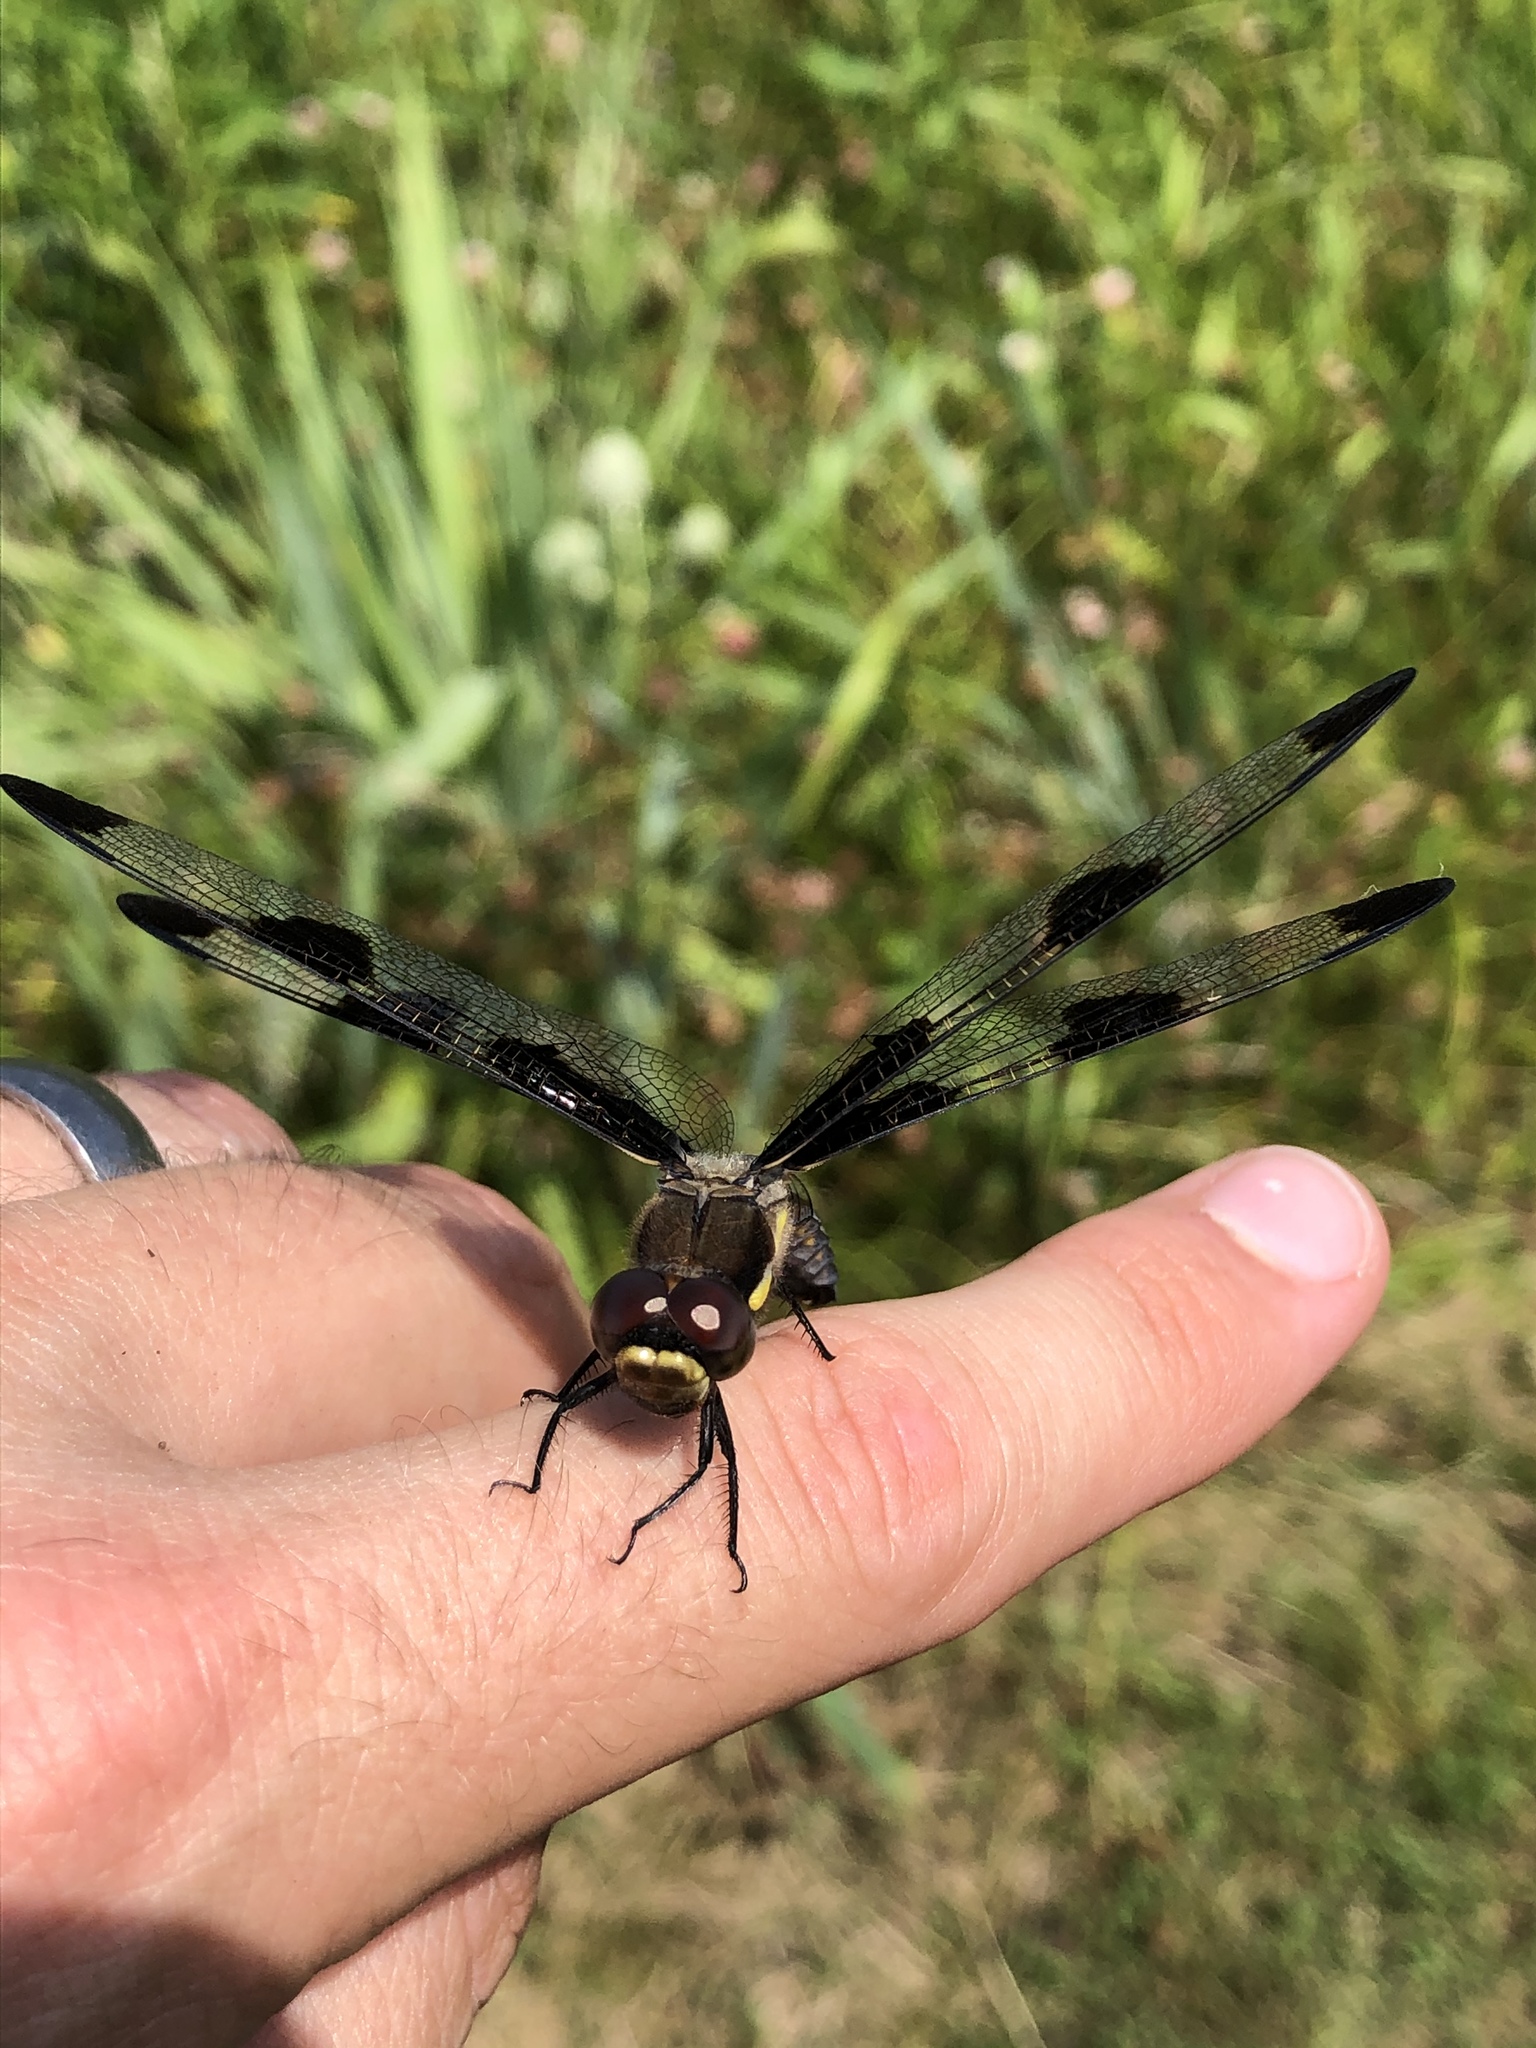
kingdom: Animalia
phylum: Arthropoda
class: Insecta
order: Odonata
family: Libellulidae
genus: Libellula
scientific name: Libellula pulchella
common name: Twelve-spotted skimmer
